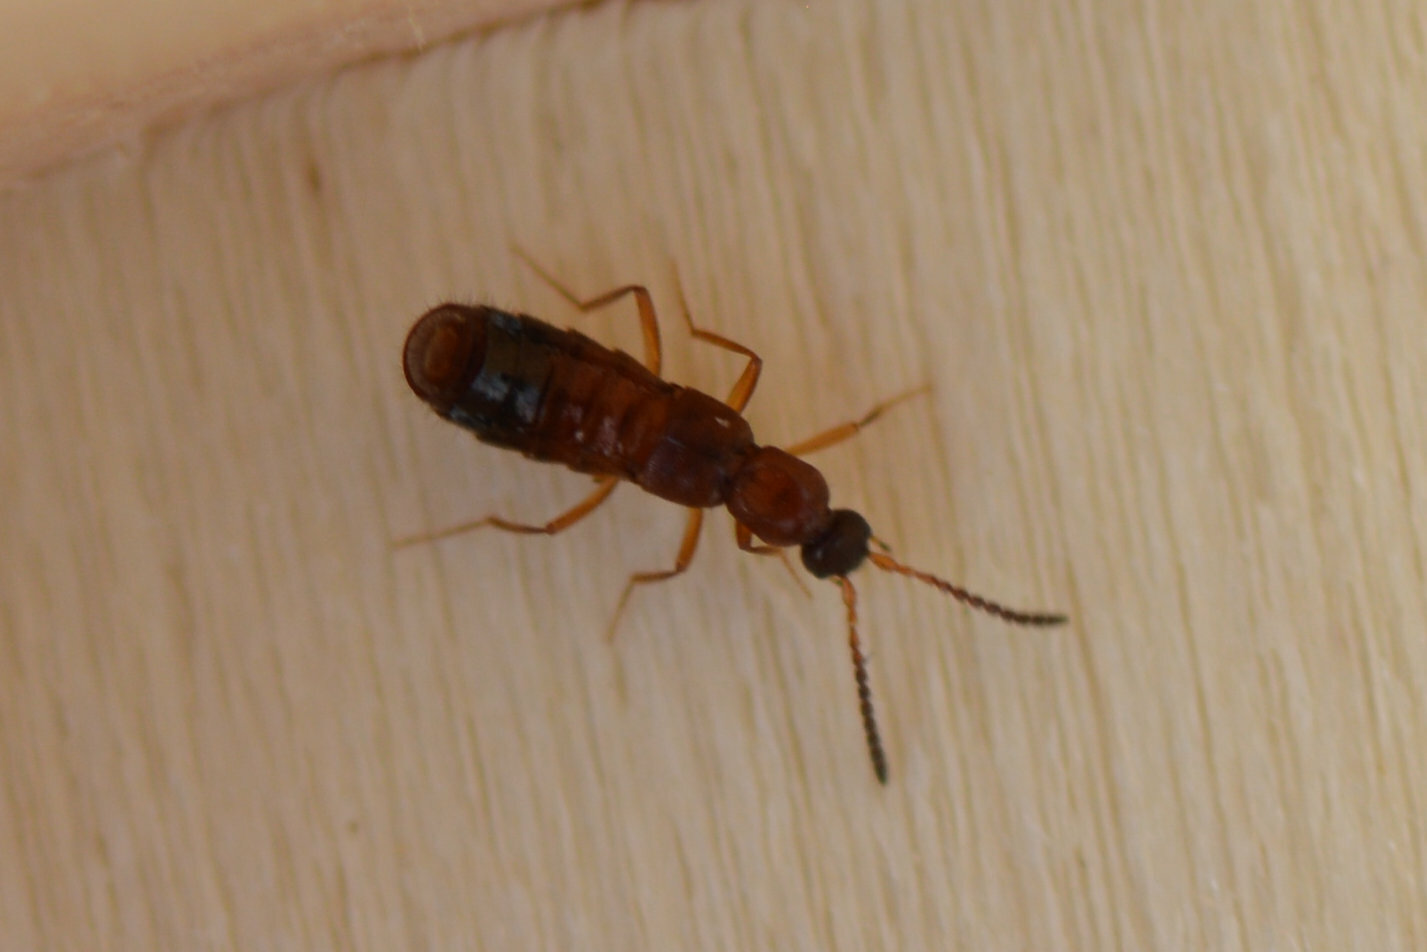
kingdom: Animalia
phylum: Arthropoda
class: Insecta
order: Coleoptera
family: Staphylinidae
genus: Drusilla
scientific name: Drusilla canaliculata
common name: Rove beetle
